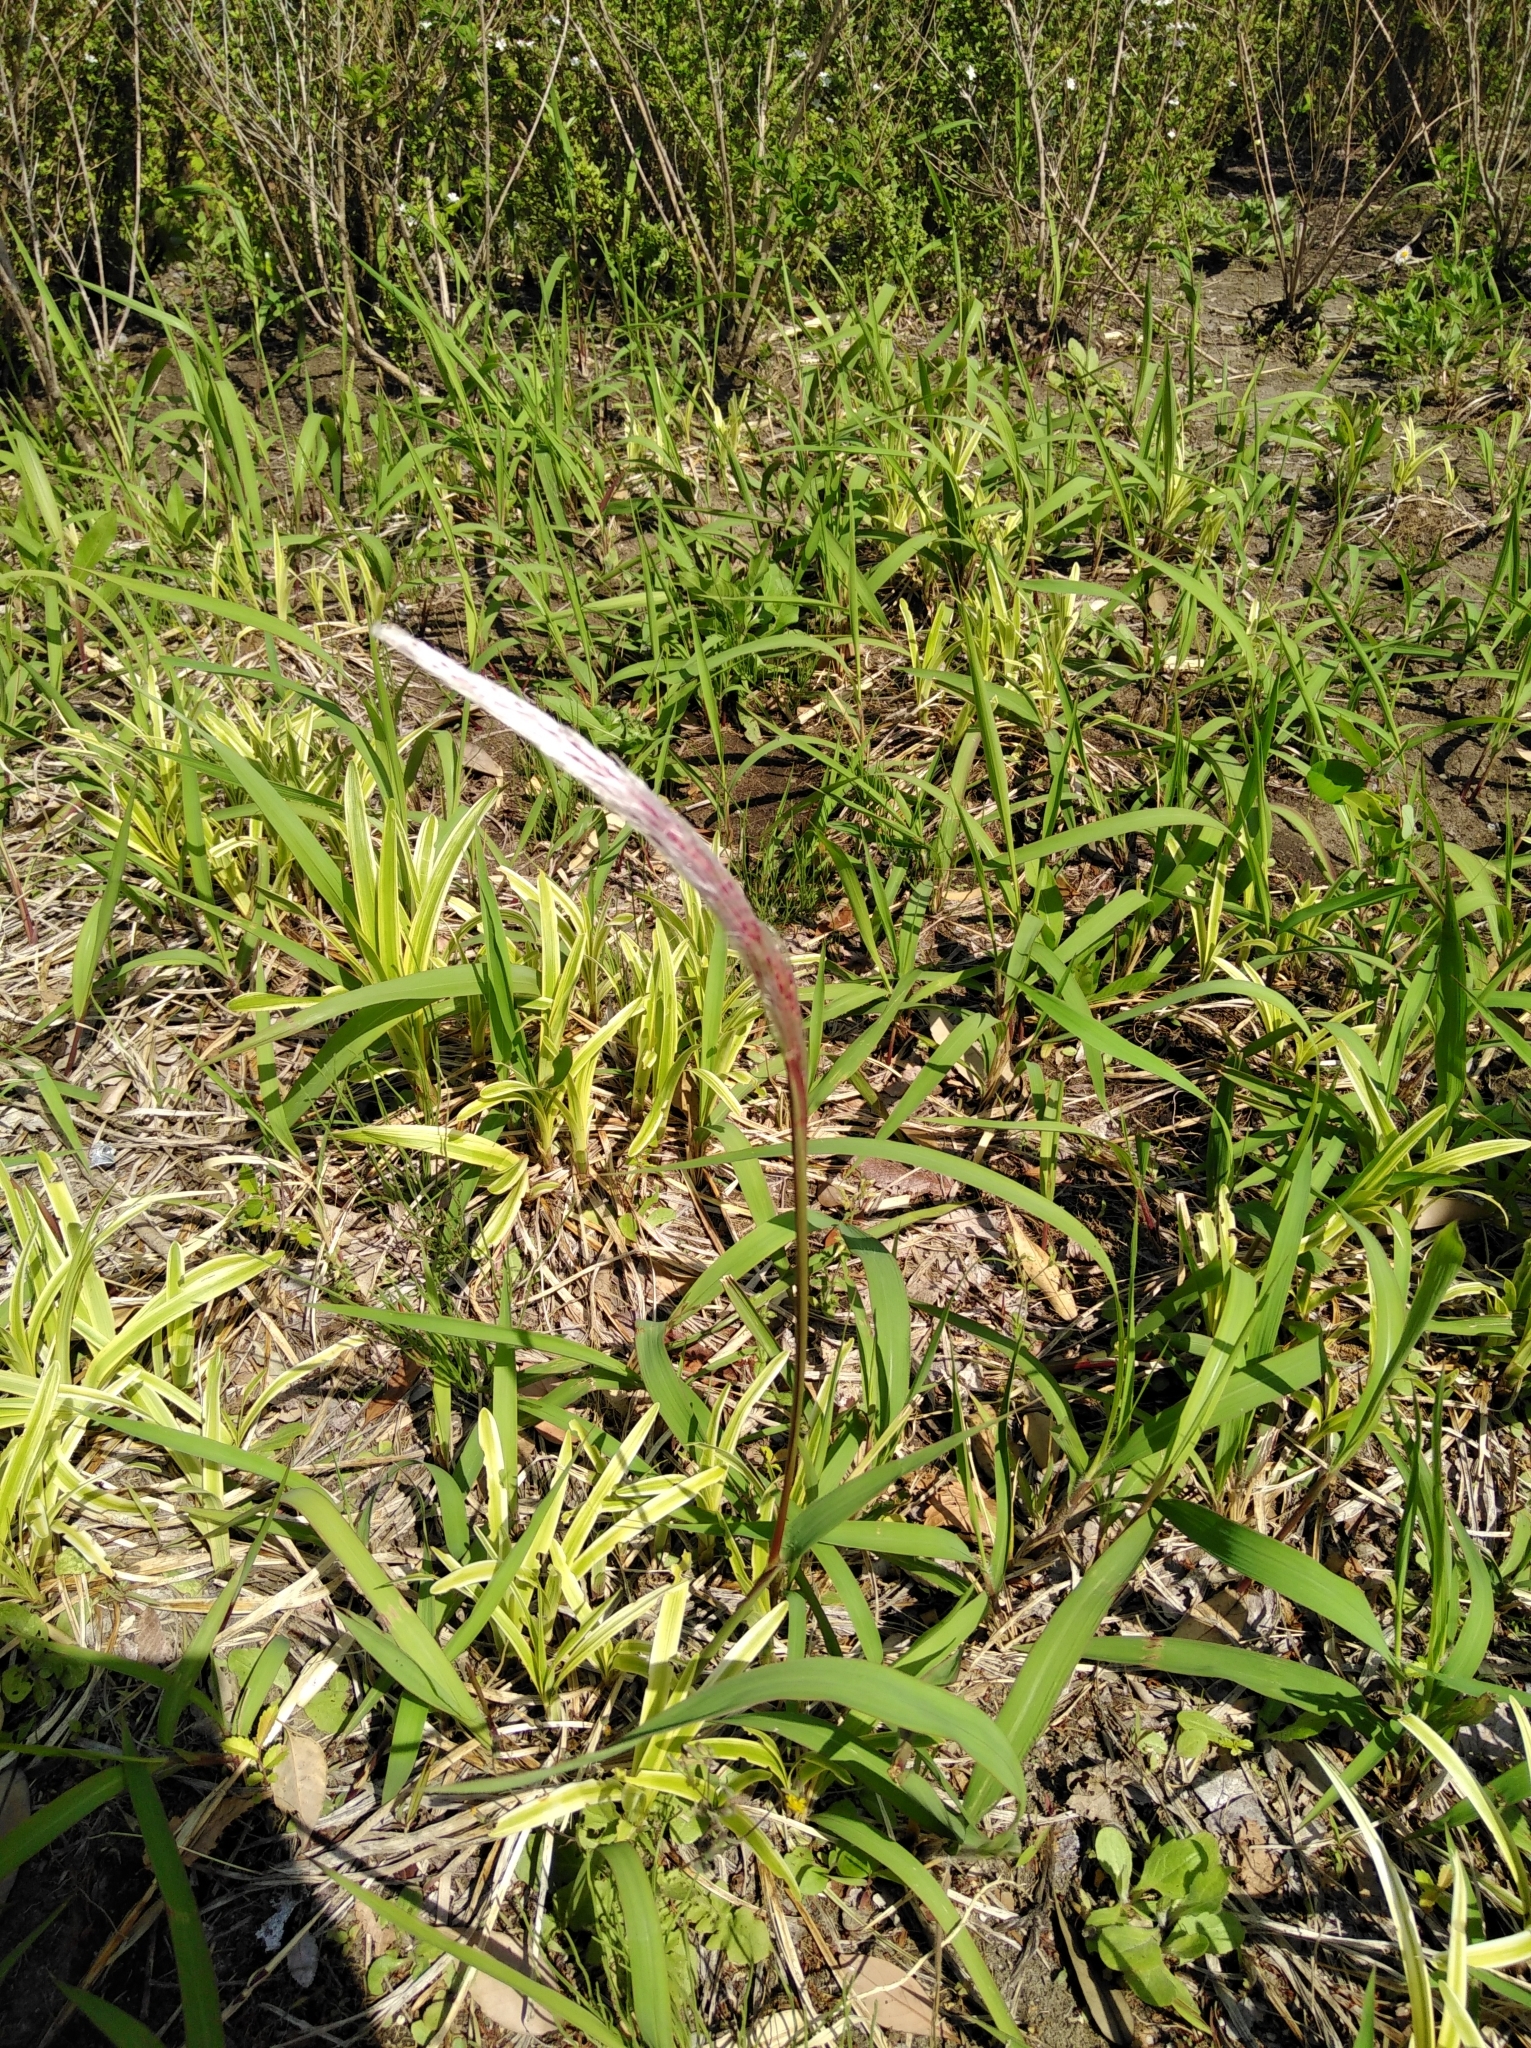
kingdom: Plantae
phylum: Tracheophyta
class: Liliopsida
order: Poales
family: Poaceae
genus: Imperata
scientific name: Imperata cylindrica
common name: Cogongrass
